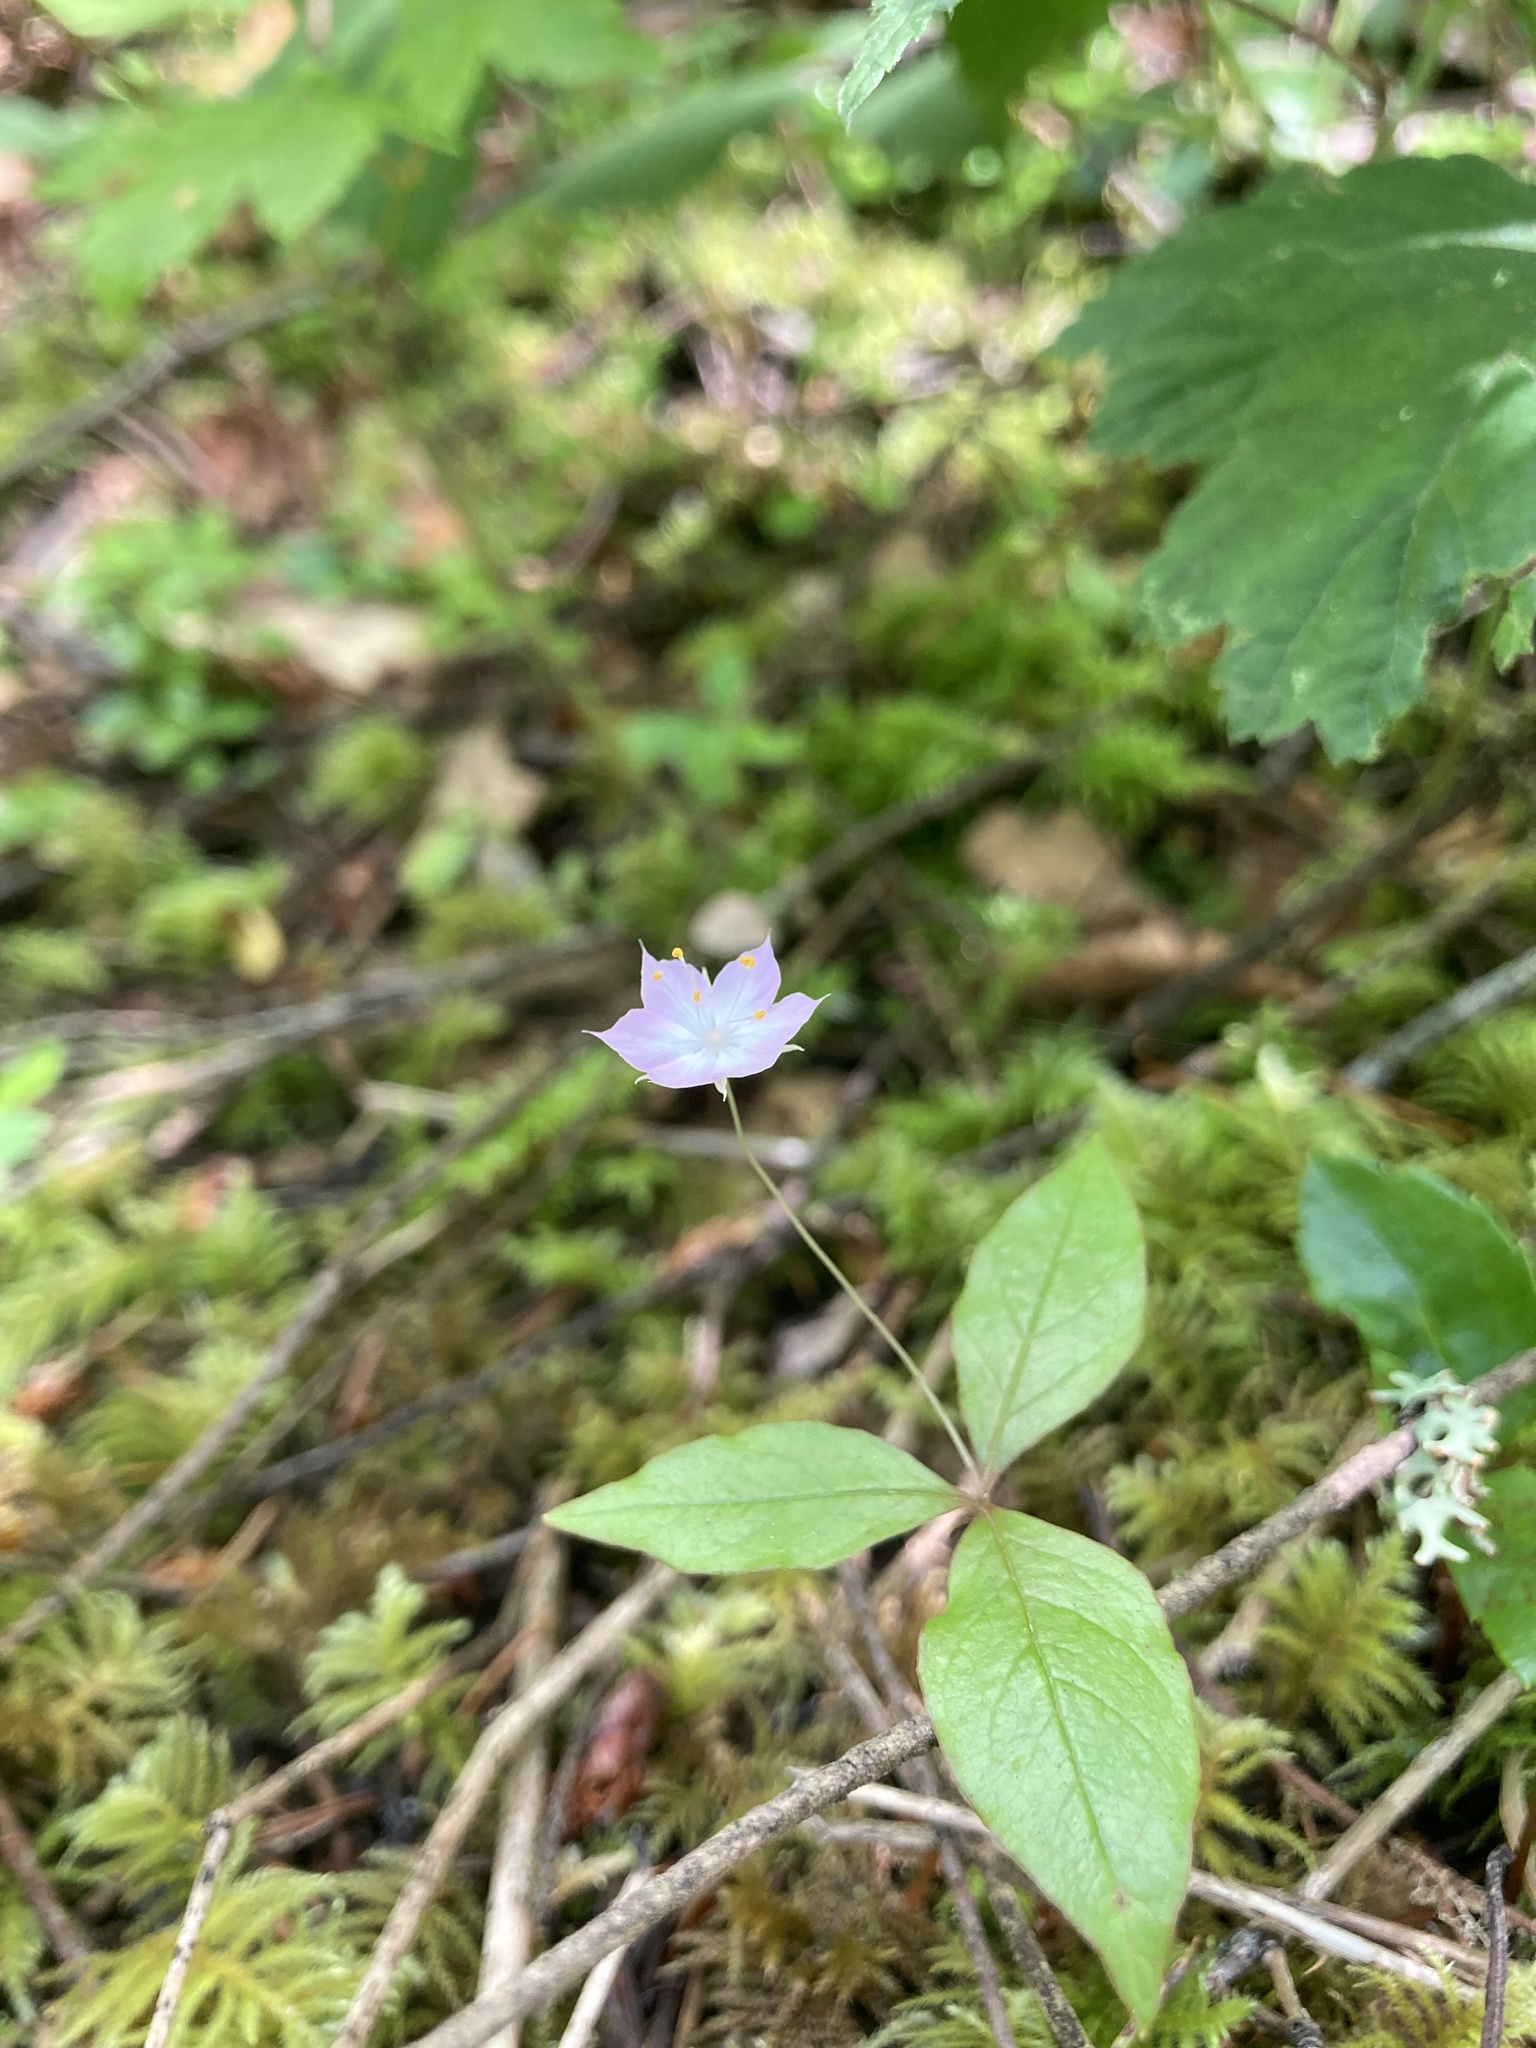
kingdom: Plantae
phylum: Tracheophyta
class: Magnoliopsida
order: Ericales
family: Primulaceae
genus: Lysimachia
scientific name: Lysimachia latifolia
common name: Pacific starflower
